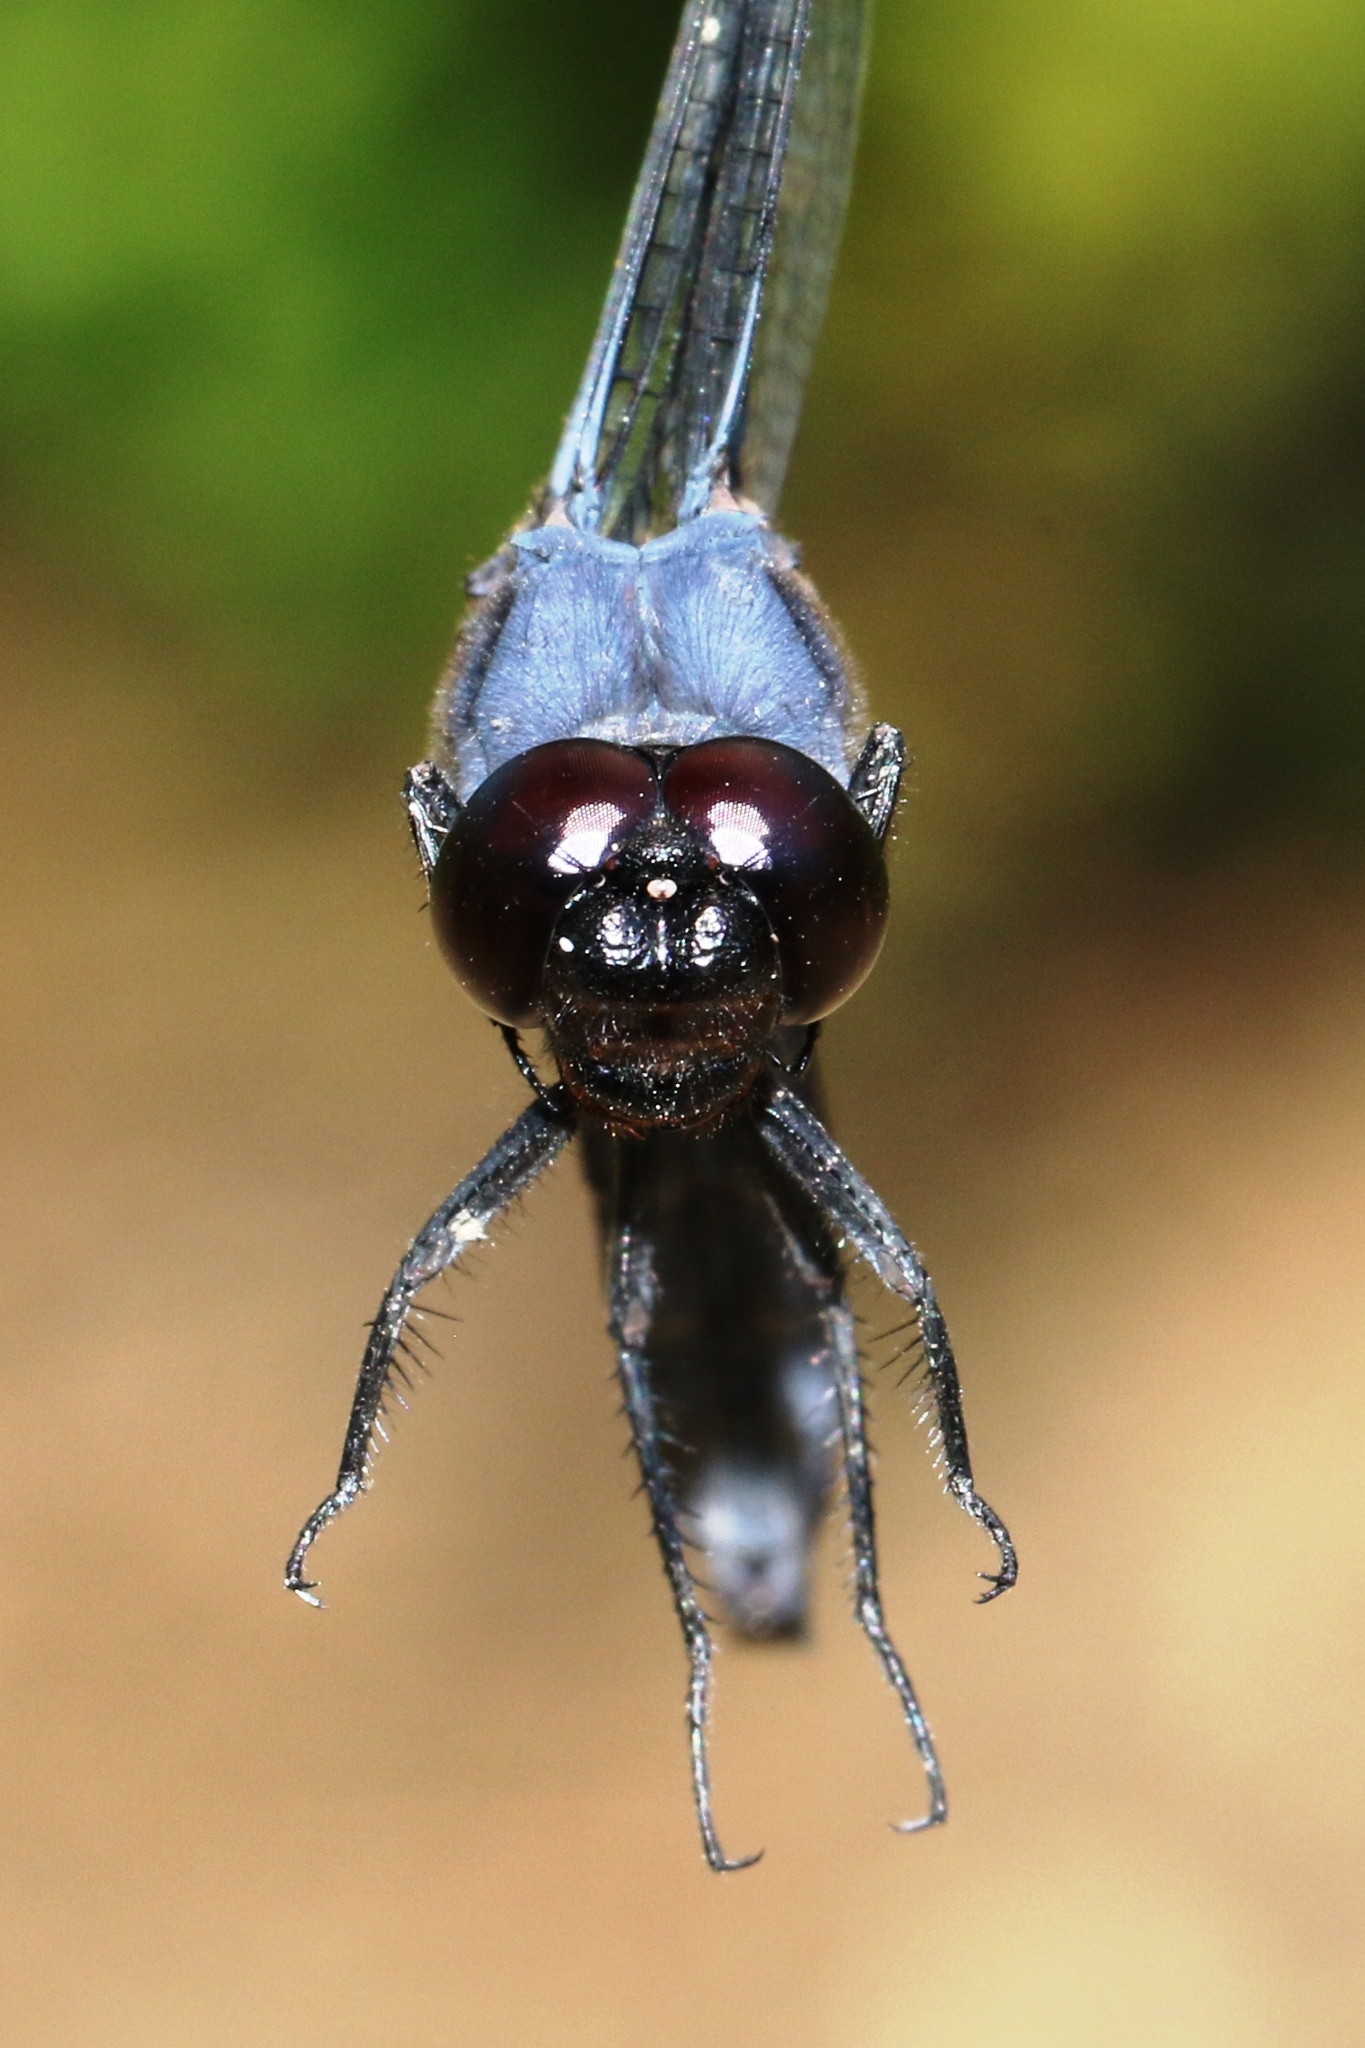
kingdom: Animalia
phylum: Arthropoda
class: Insecta
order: Odonata
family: Libellulidae
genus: Libellula
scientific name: Libellula incesta
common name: Slaty skimmer
